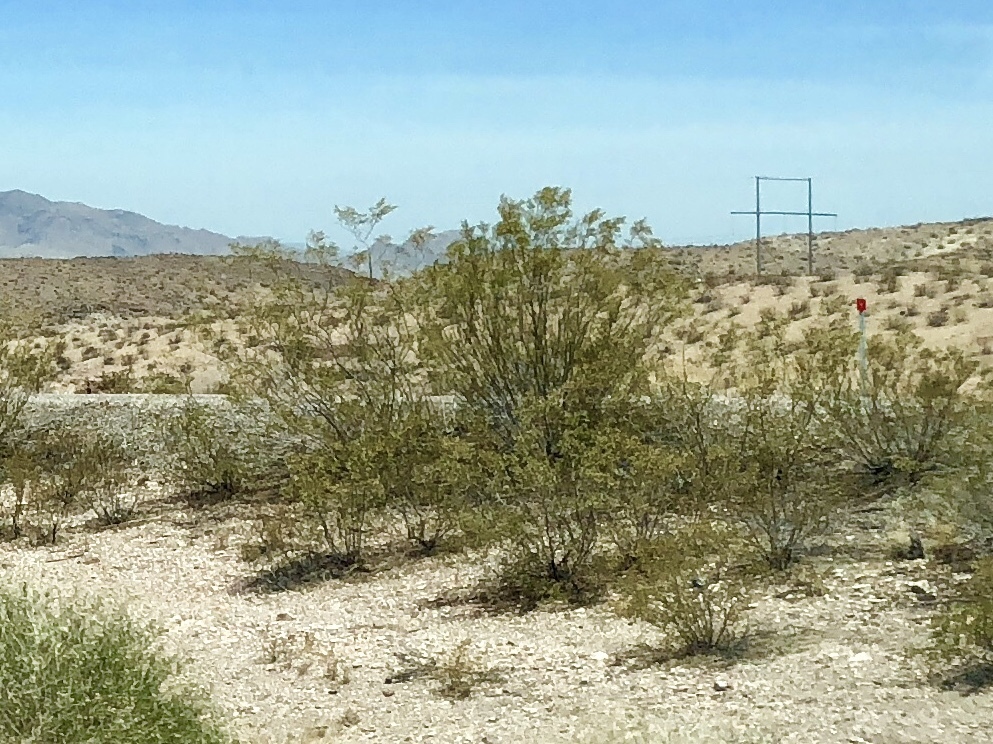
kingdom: Plantae
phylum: Tracheophyta
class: Magnoliopsida
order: Zygophyllales
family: Zygophyllaceae
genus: Larrea
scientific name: Larrea tridentata
